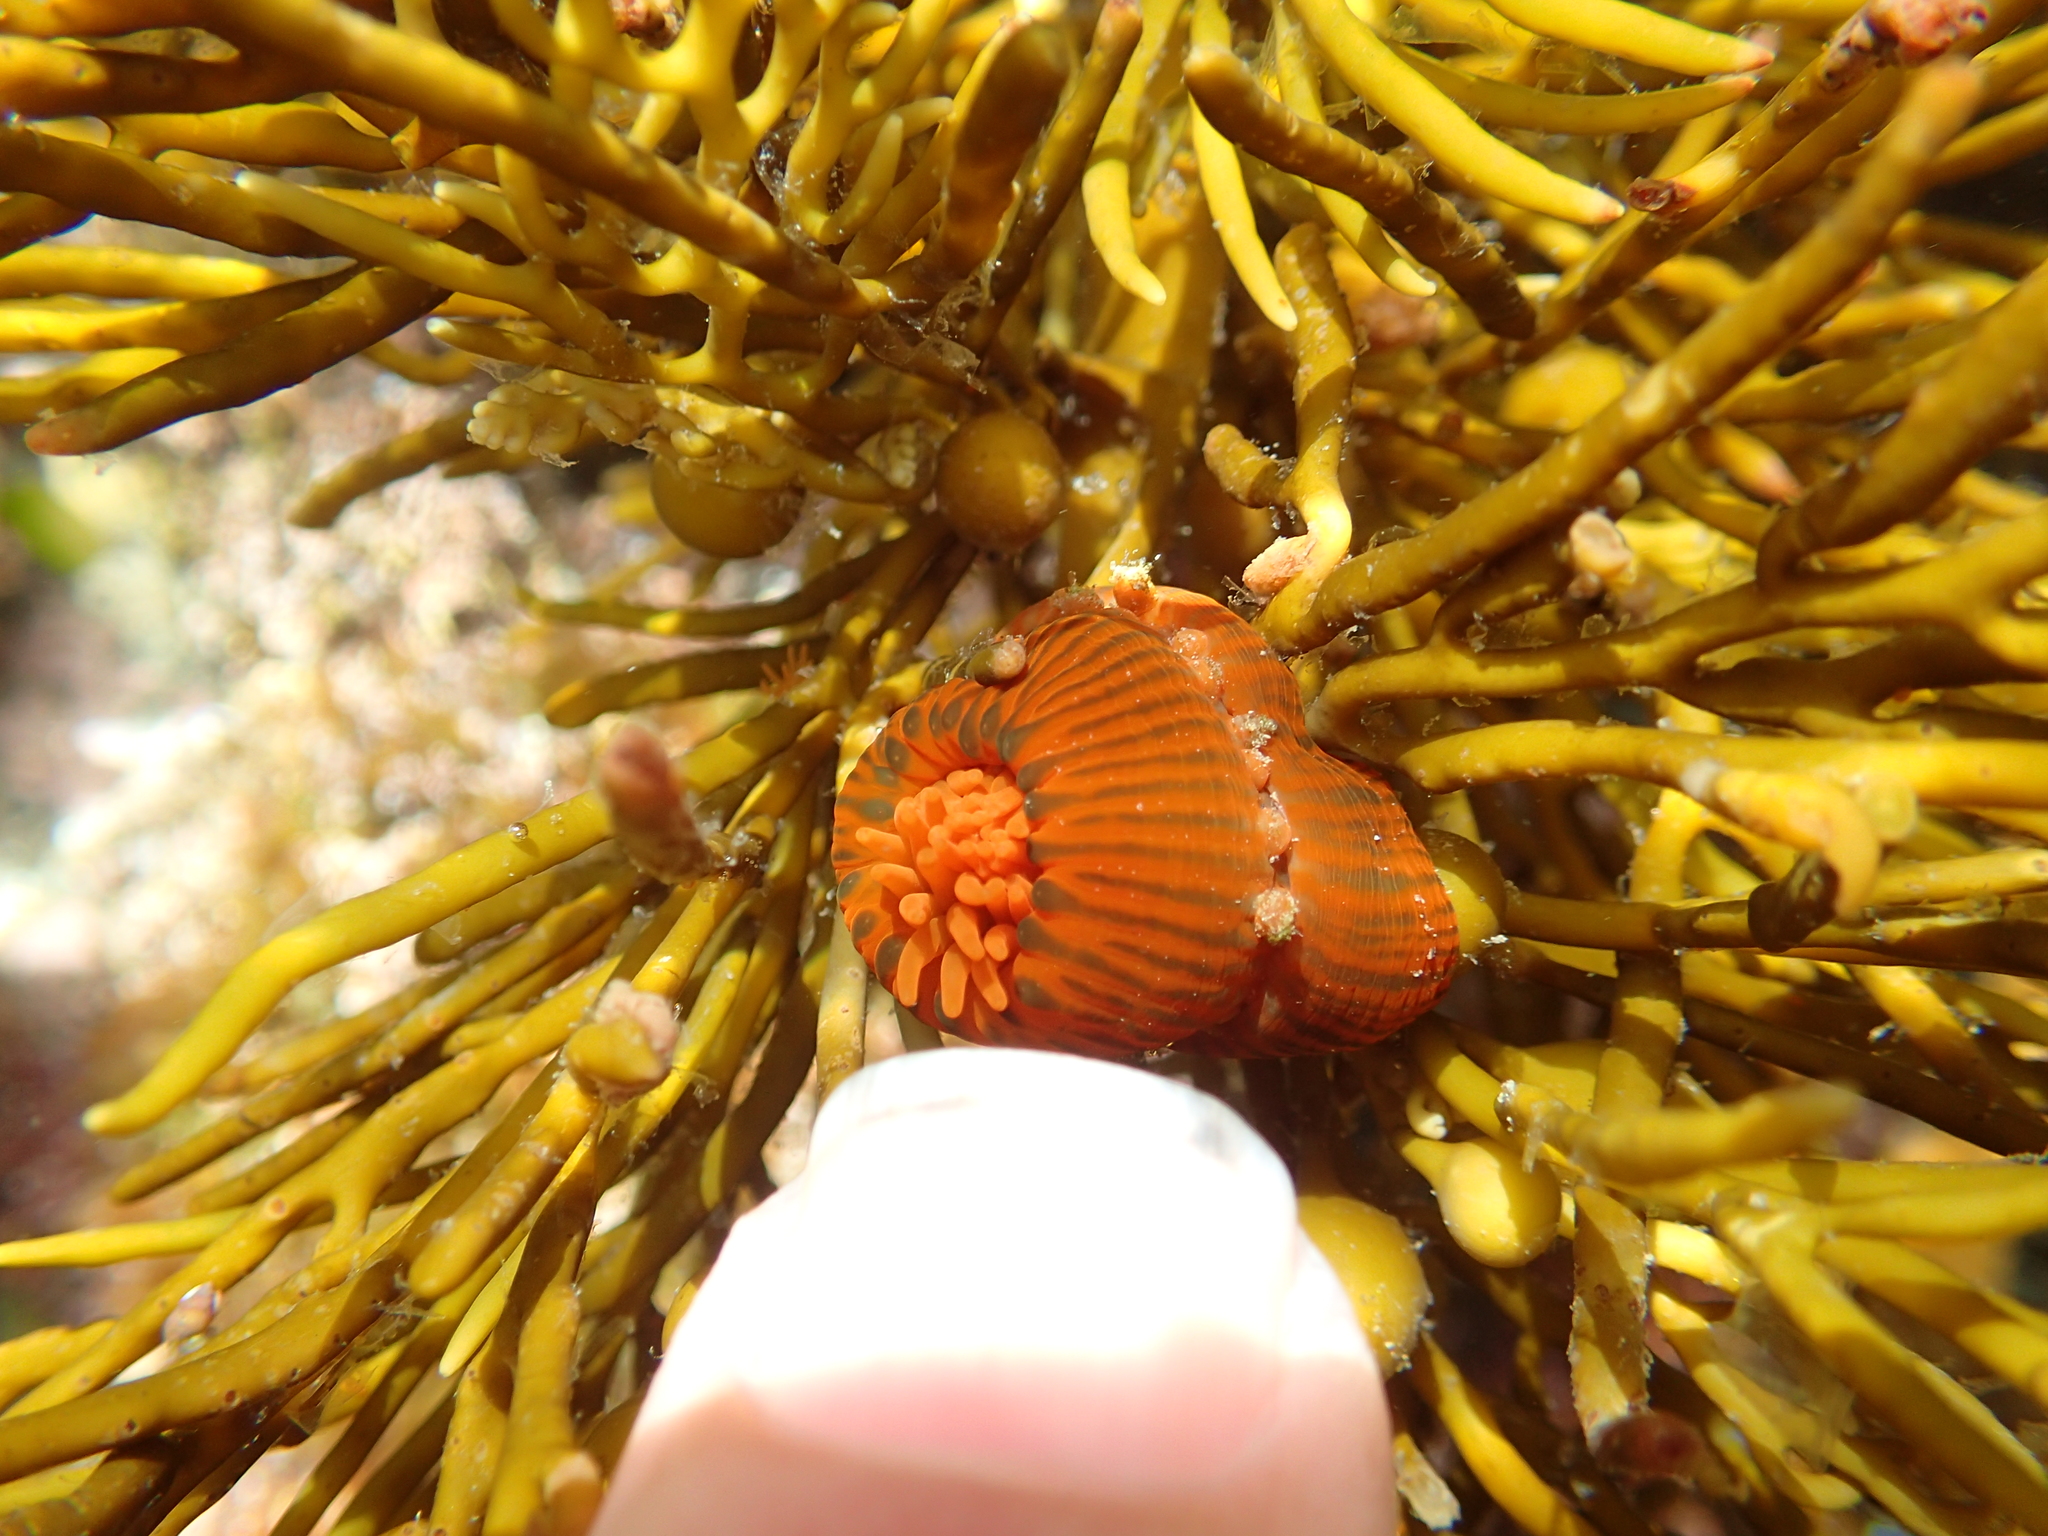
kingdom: Animalia
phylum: Cnidaria
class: Anthozoa
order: Actiniaria
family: Actiniidae
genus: Epiactis
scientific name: Epiactis
